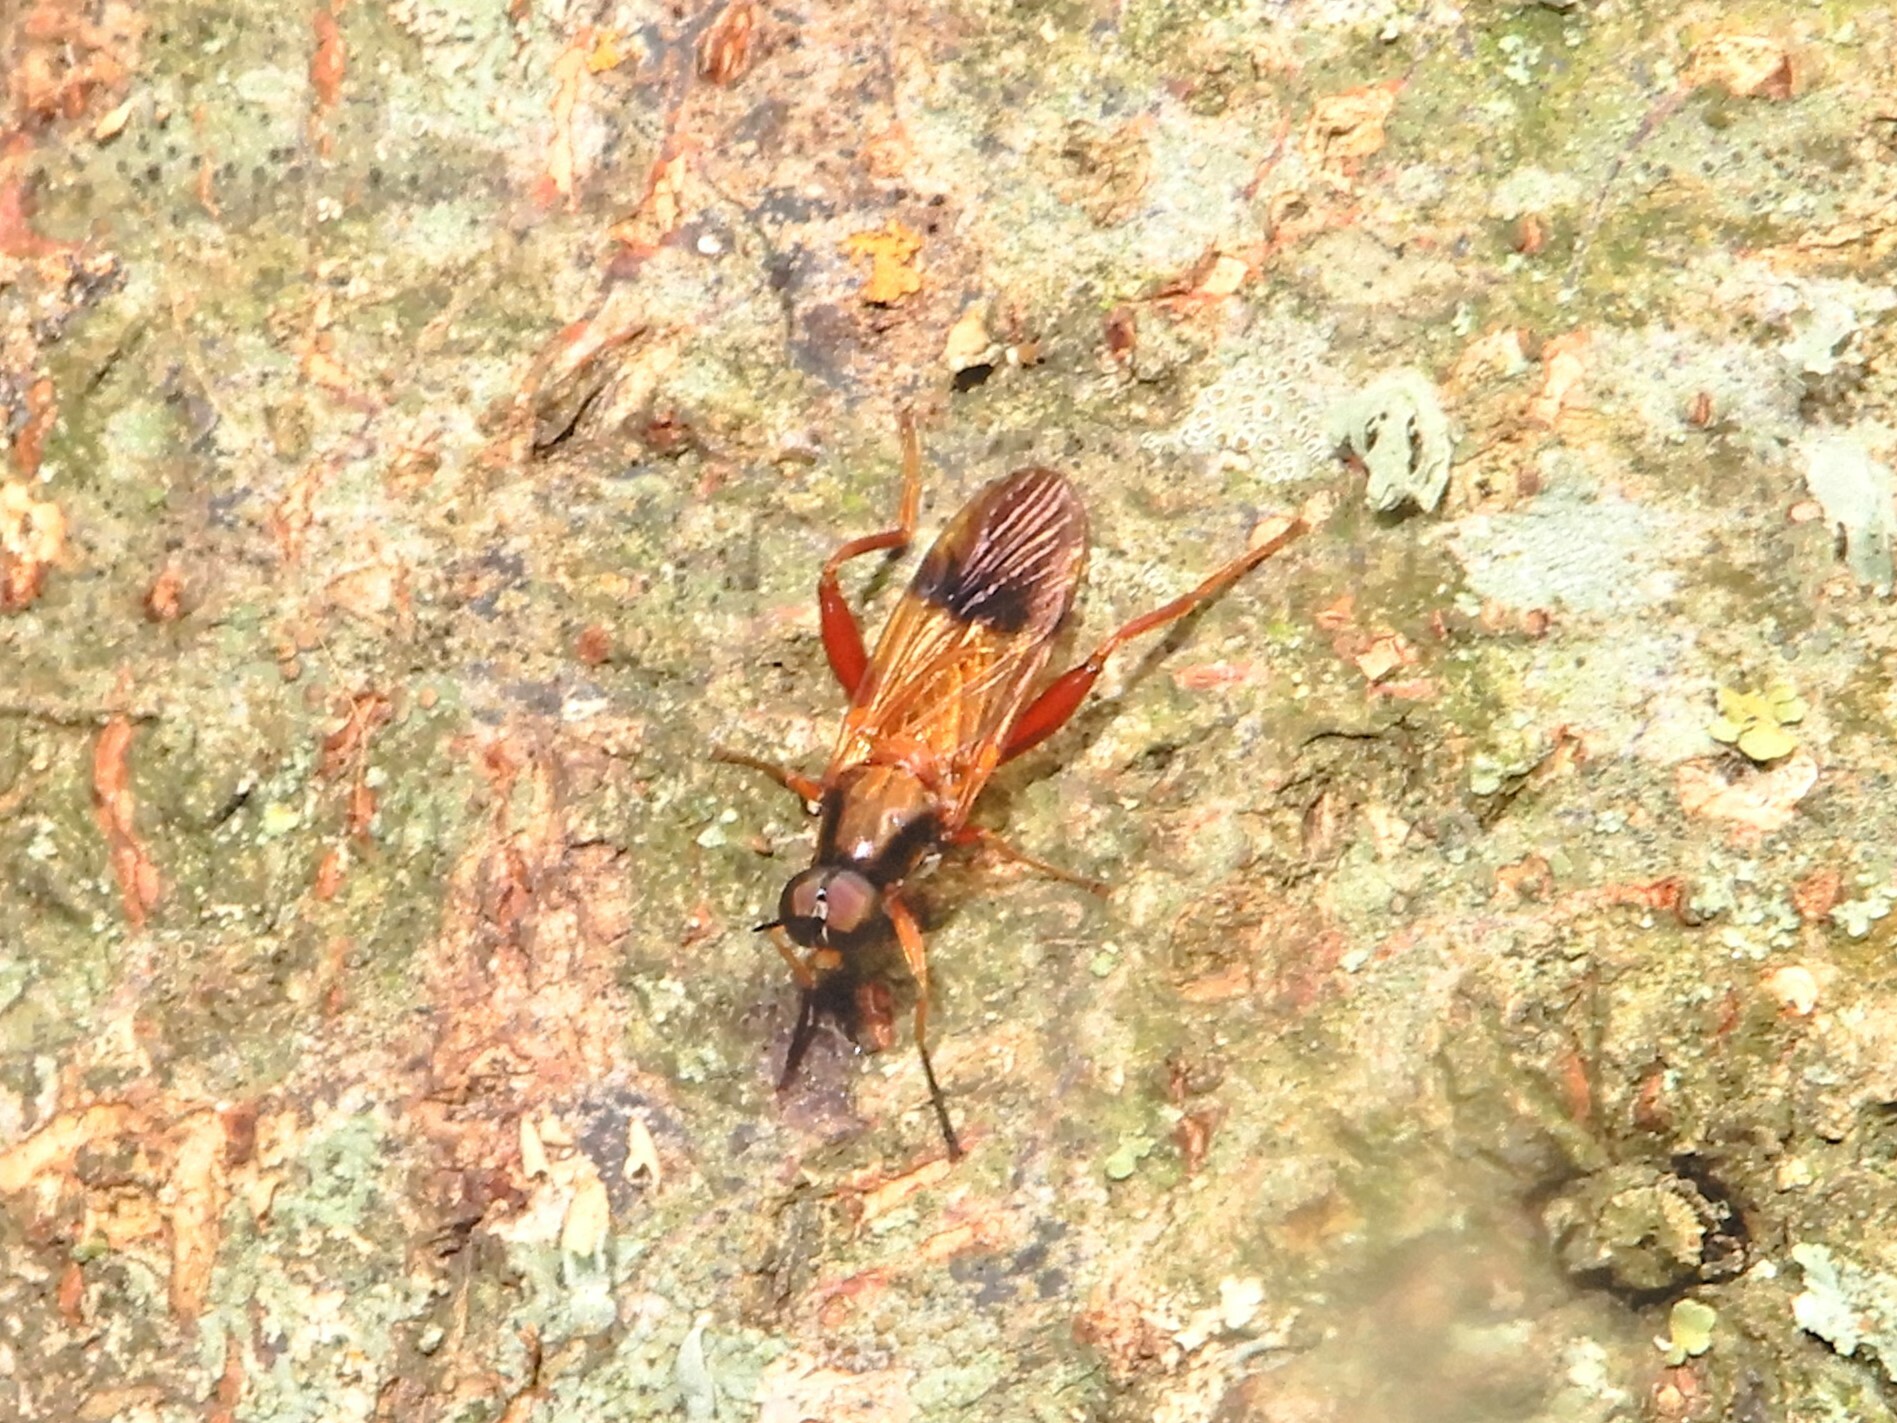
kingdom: Animalia
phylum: Arthropoda
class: Insecta
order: Diptera
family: Stratiomyidae
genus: Benhamyia
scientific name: Benhamyia apicalis
